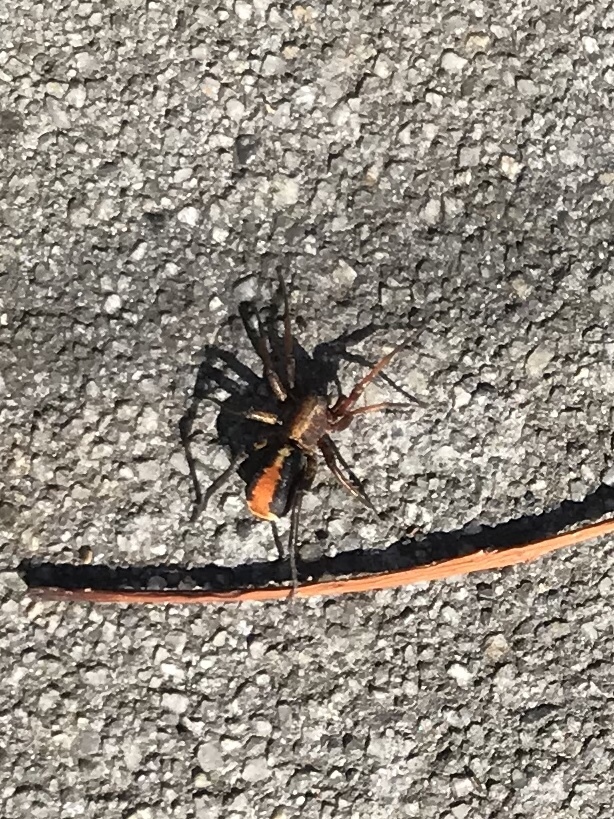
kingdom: Animalia
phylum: Arthropoda
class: Arachnida
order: Araneae
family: Corinnidae
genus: Castianeira
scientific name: Castianeira thalia
